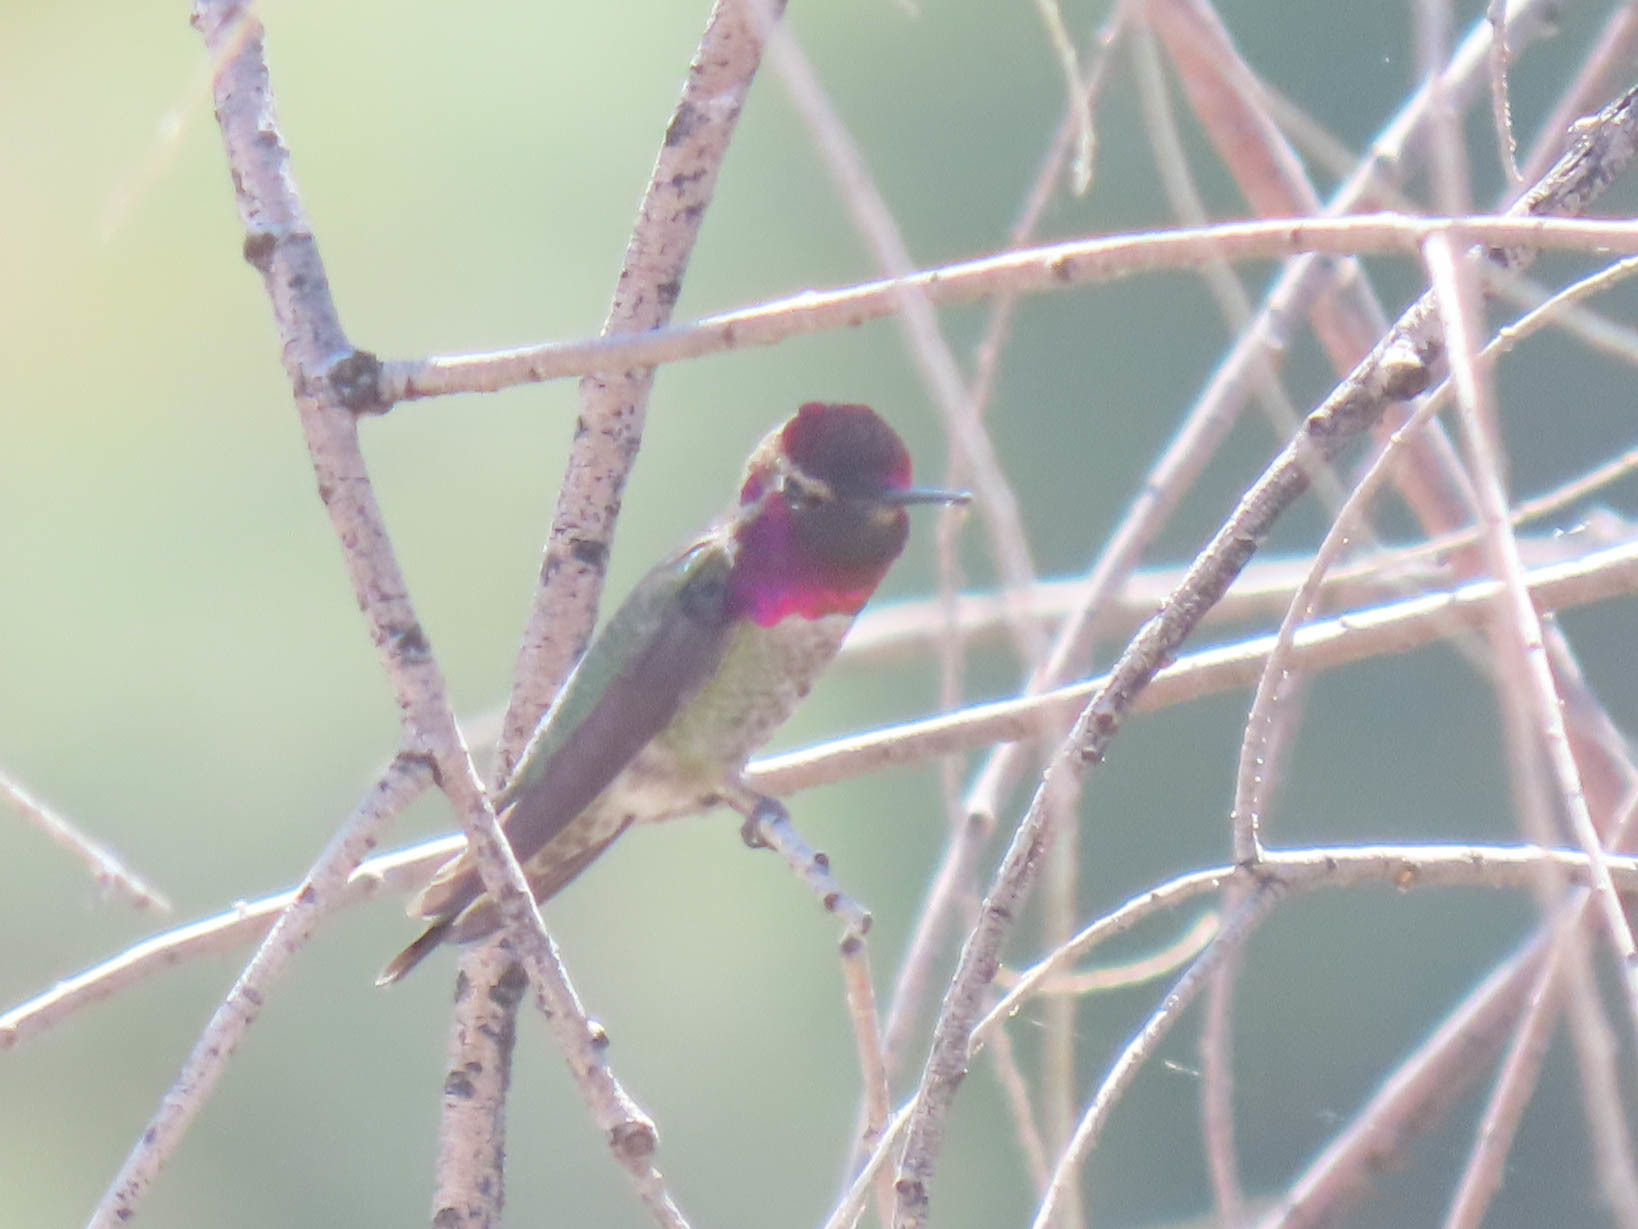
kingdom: Animalia
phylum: Chordata
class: Aves
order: Apodiformes
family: Trochilidae
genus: Calypte
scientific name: Calypte anna
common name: Anna's hummingbird
